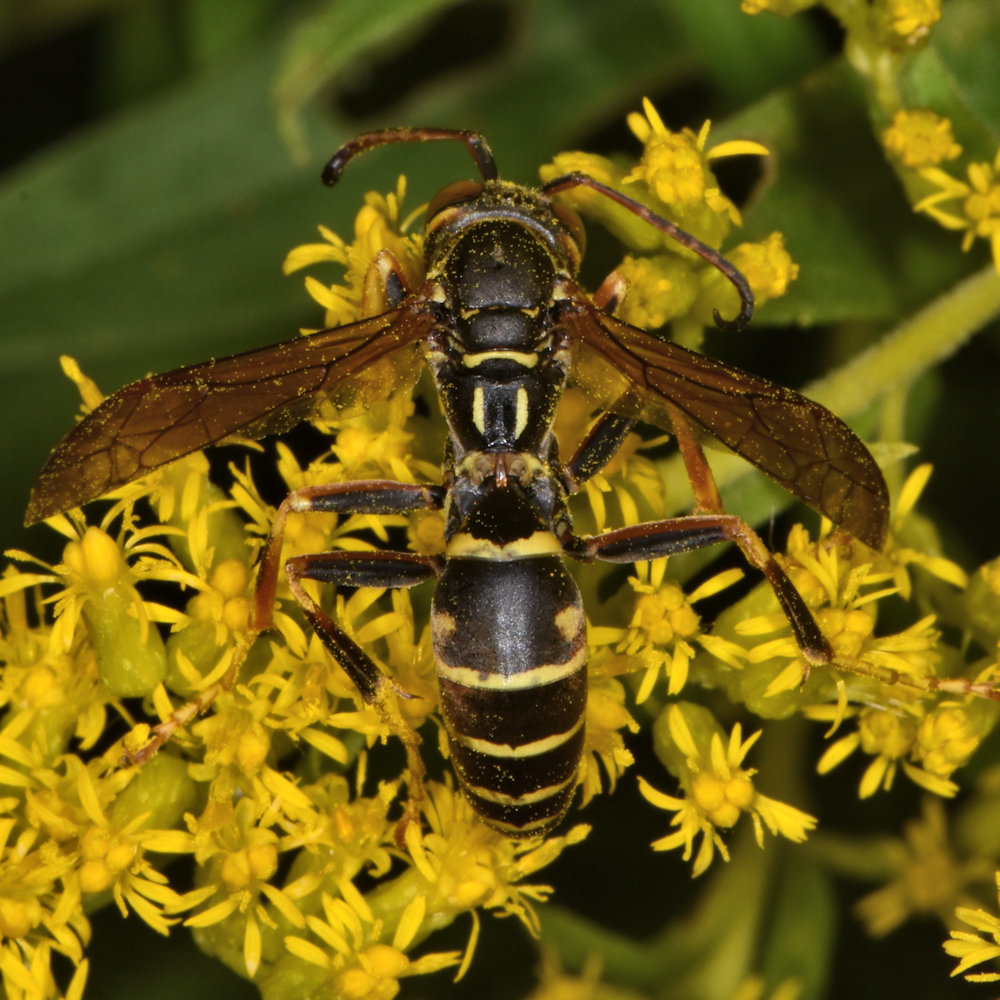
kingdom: Animalia
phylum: Arthropoda
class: Insecta
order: Hymenoptera
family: Eumenidae
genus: Polistes
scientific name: Polistes fuscatus
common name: Dark paper wasp
